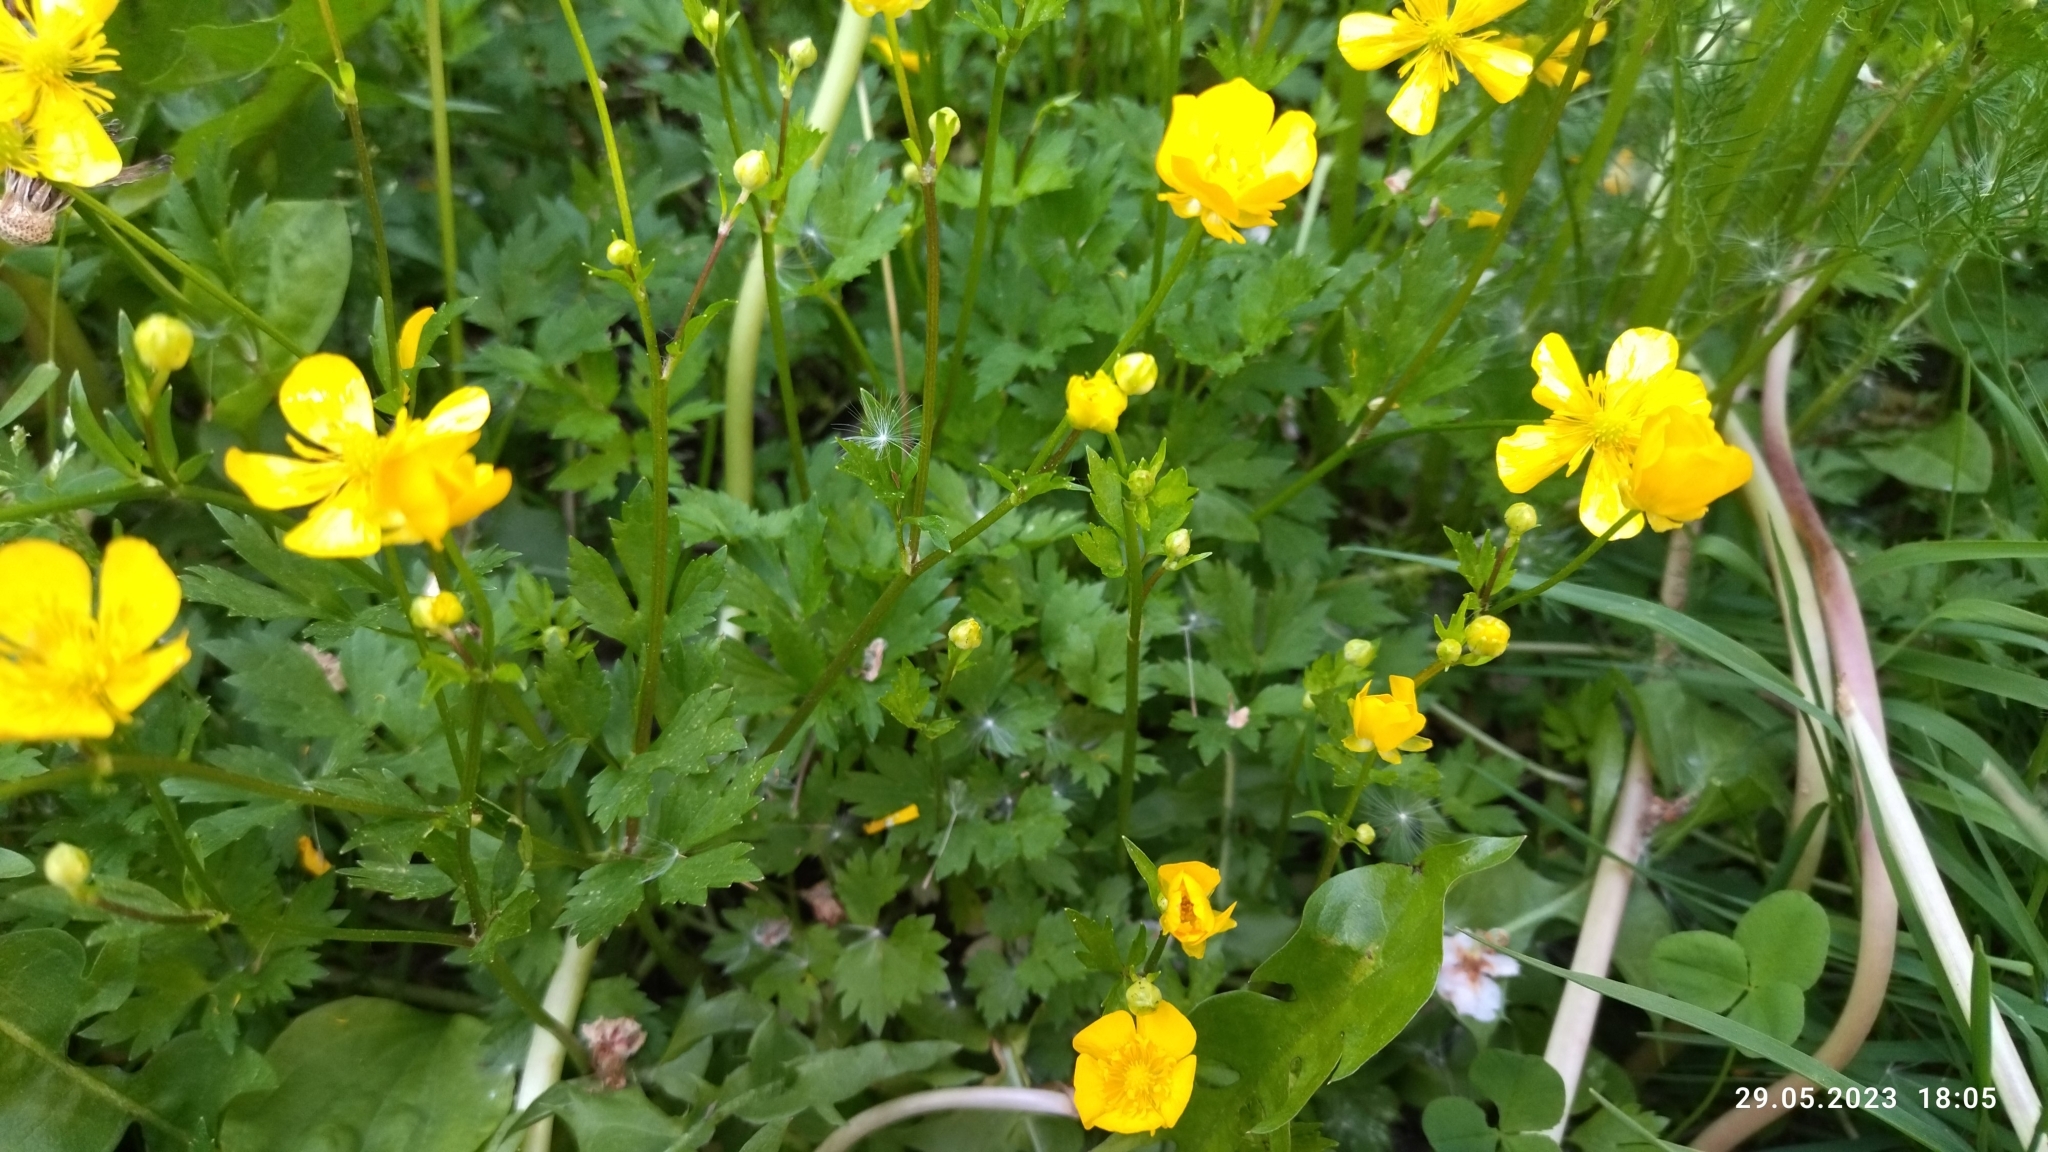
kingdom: Plantae
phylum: Tracheophyta
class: Magnoliopsida
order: Ranunculales
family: Ranunculaceae
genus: Ranunculus
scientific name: Ranunculus repens
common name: Creeping buttercup
